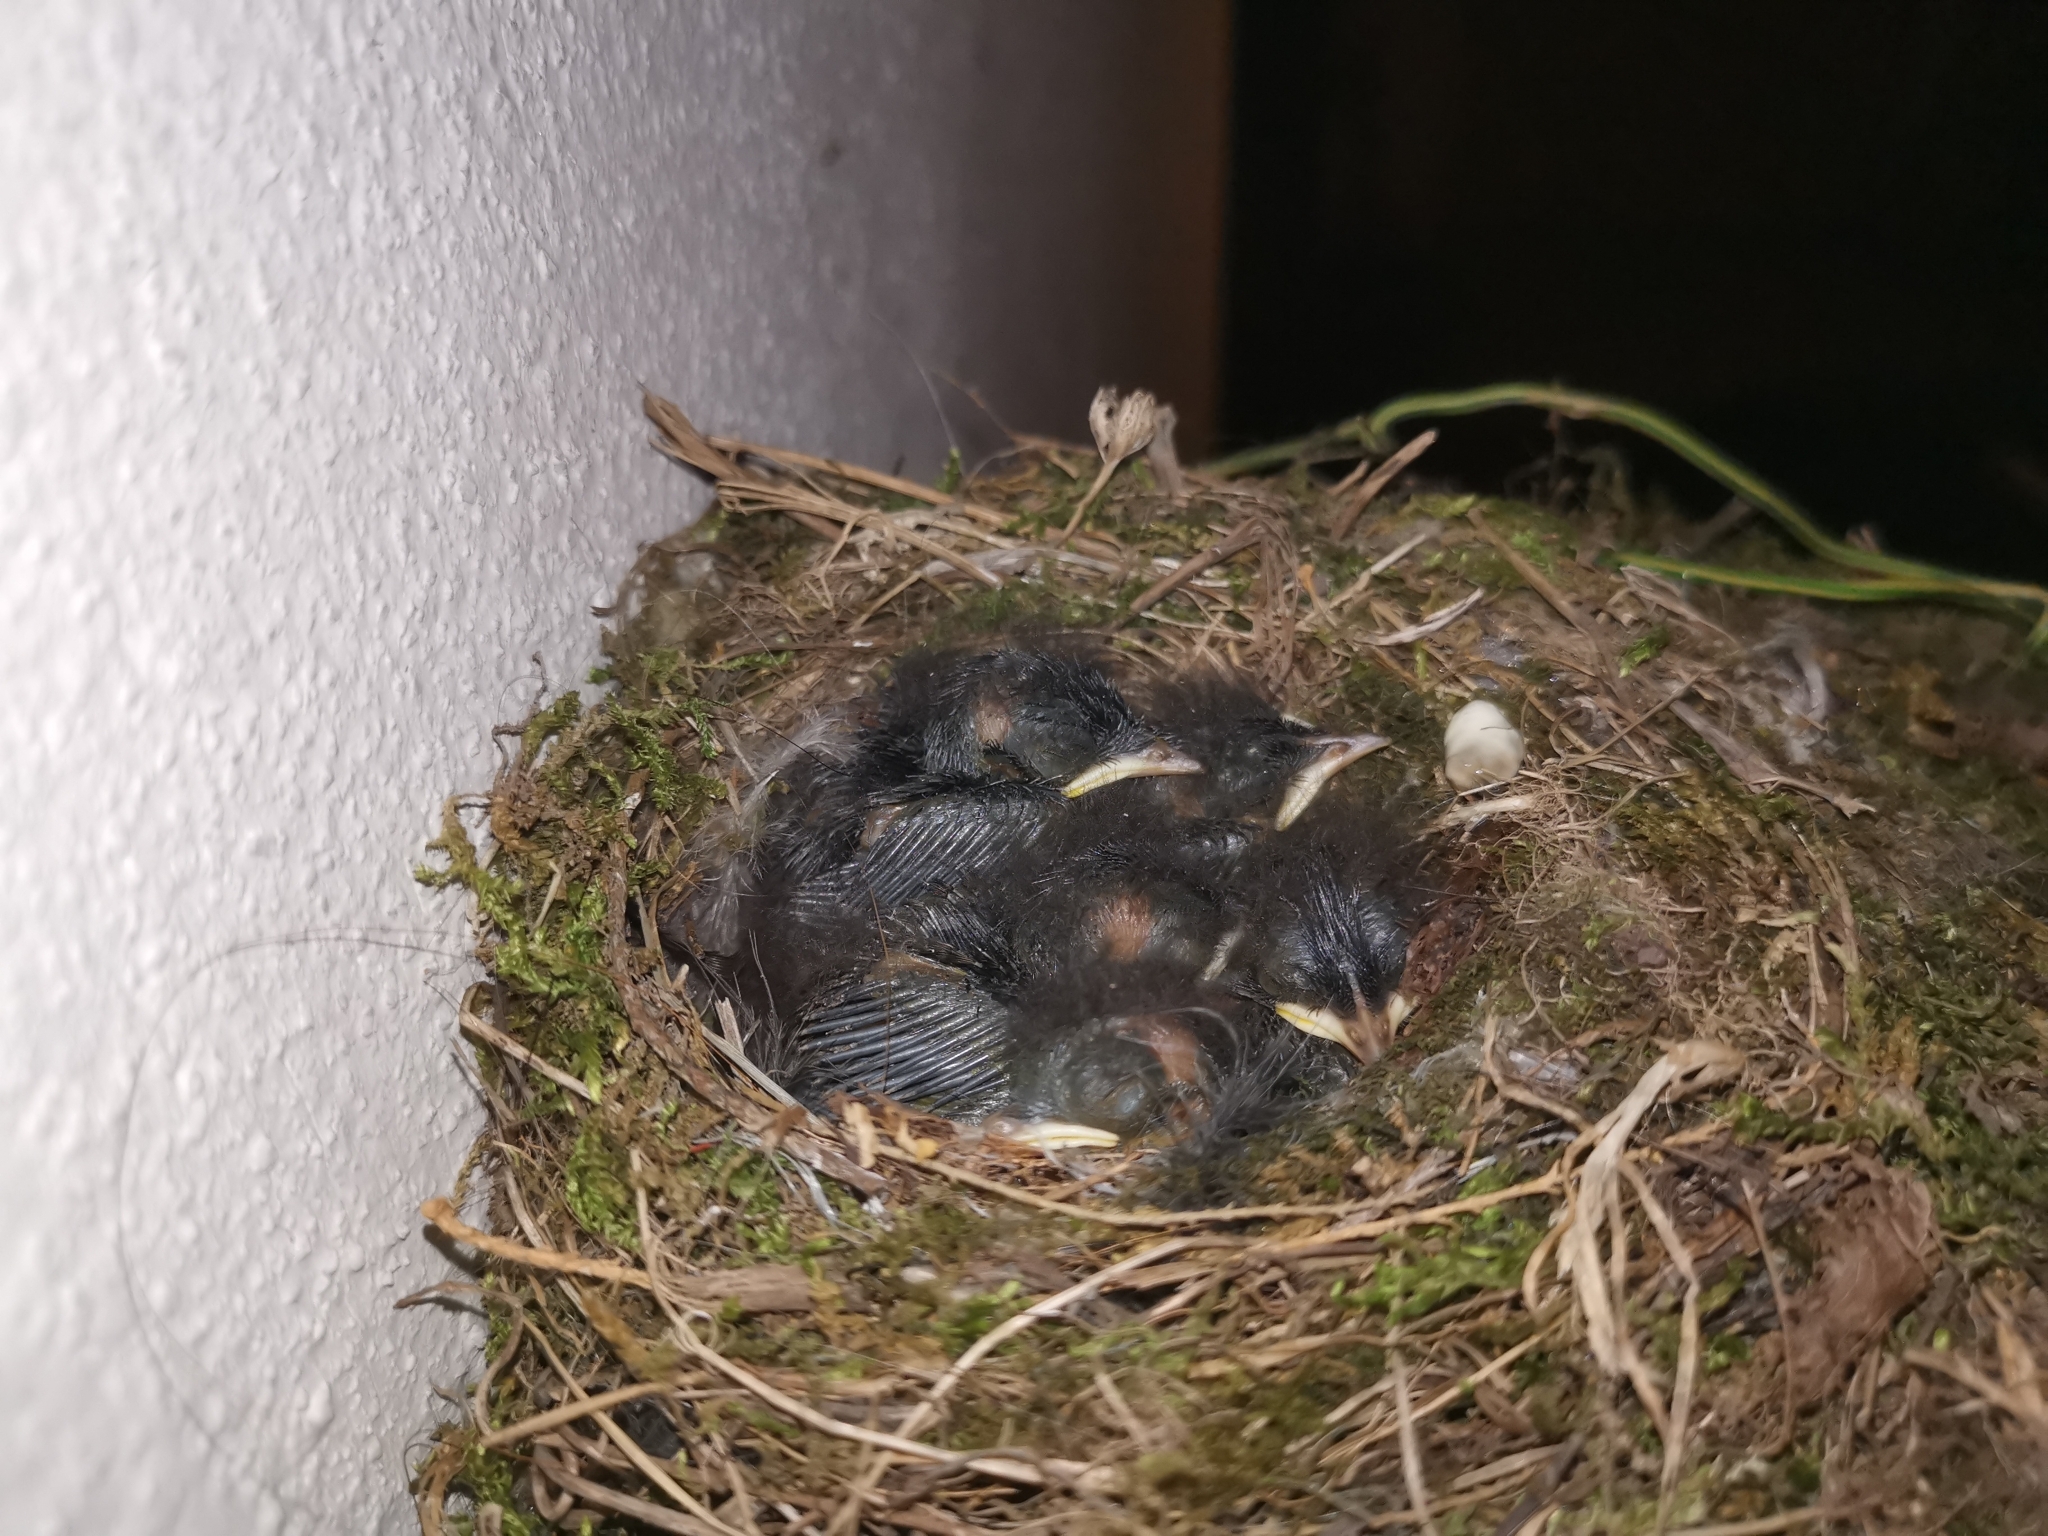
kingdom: Animalia
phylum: Chordata
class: Aves
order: Passeriformes
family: Muscicapidae
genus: Phoenicurus
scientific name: Phoenicurus ochruros
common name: Black redstart
